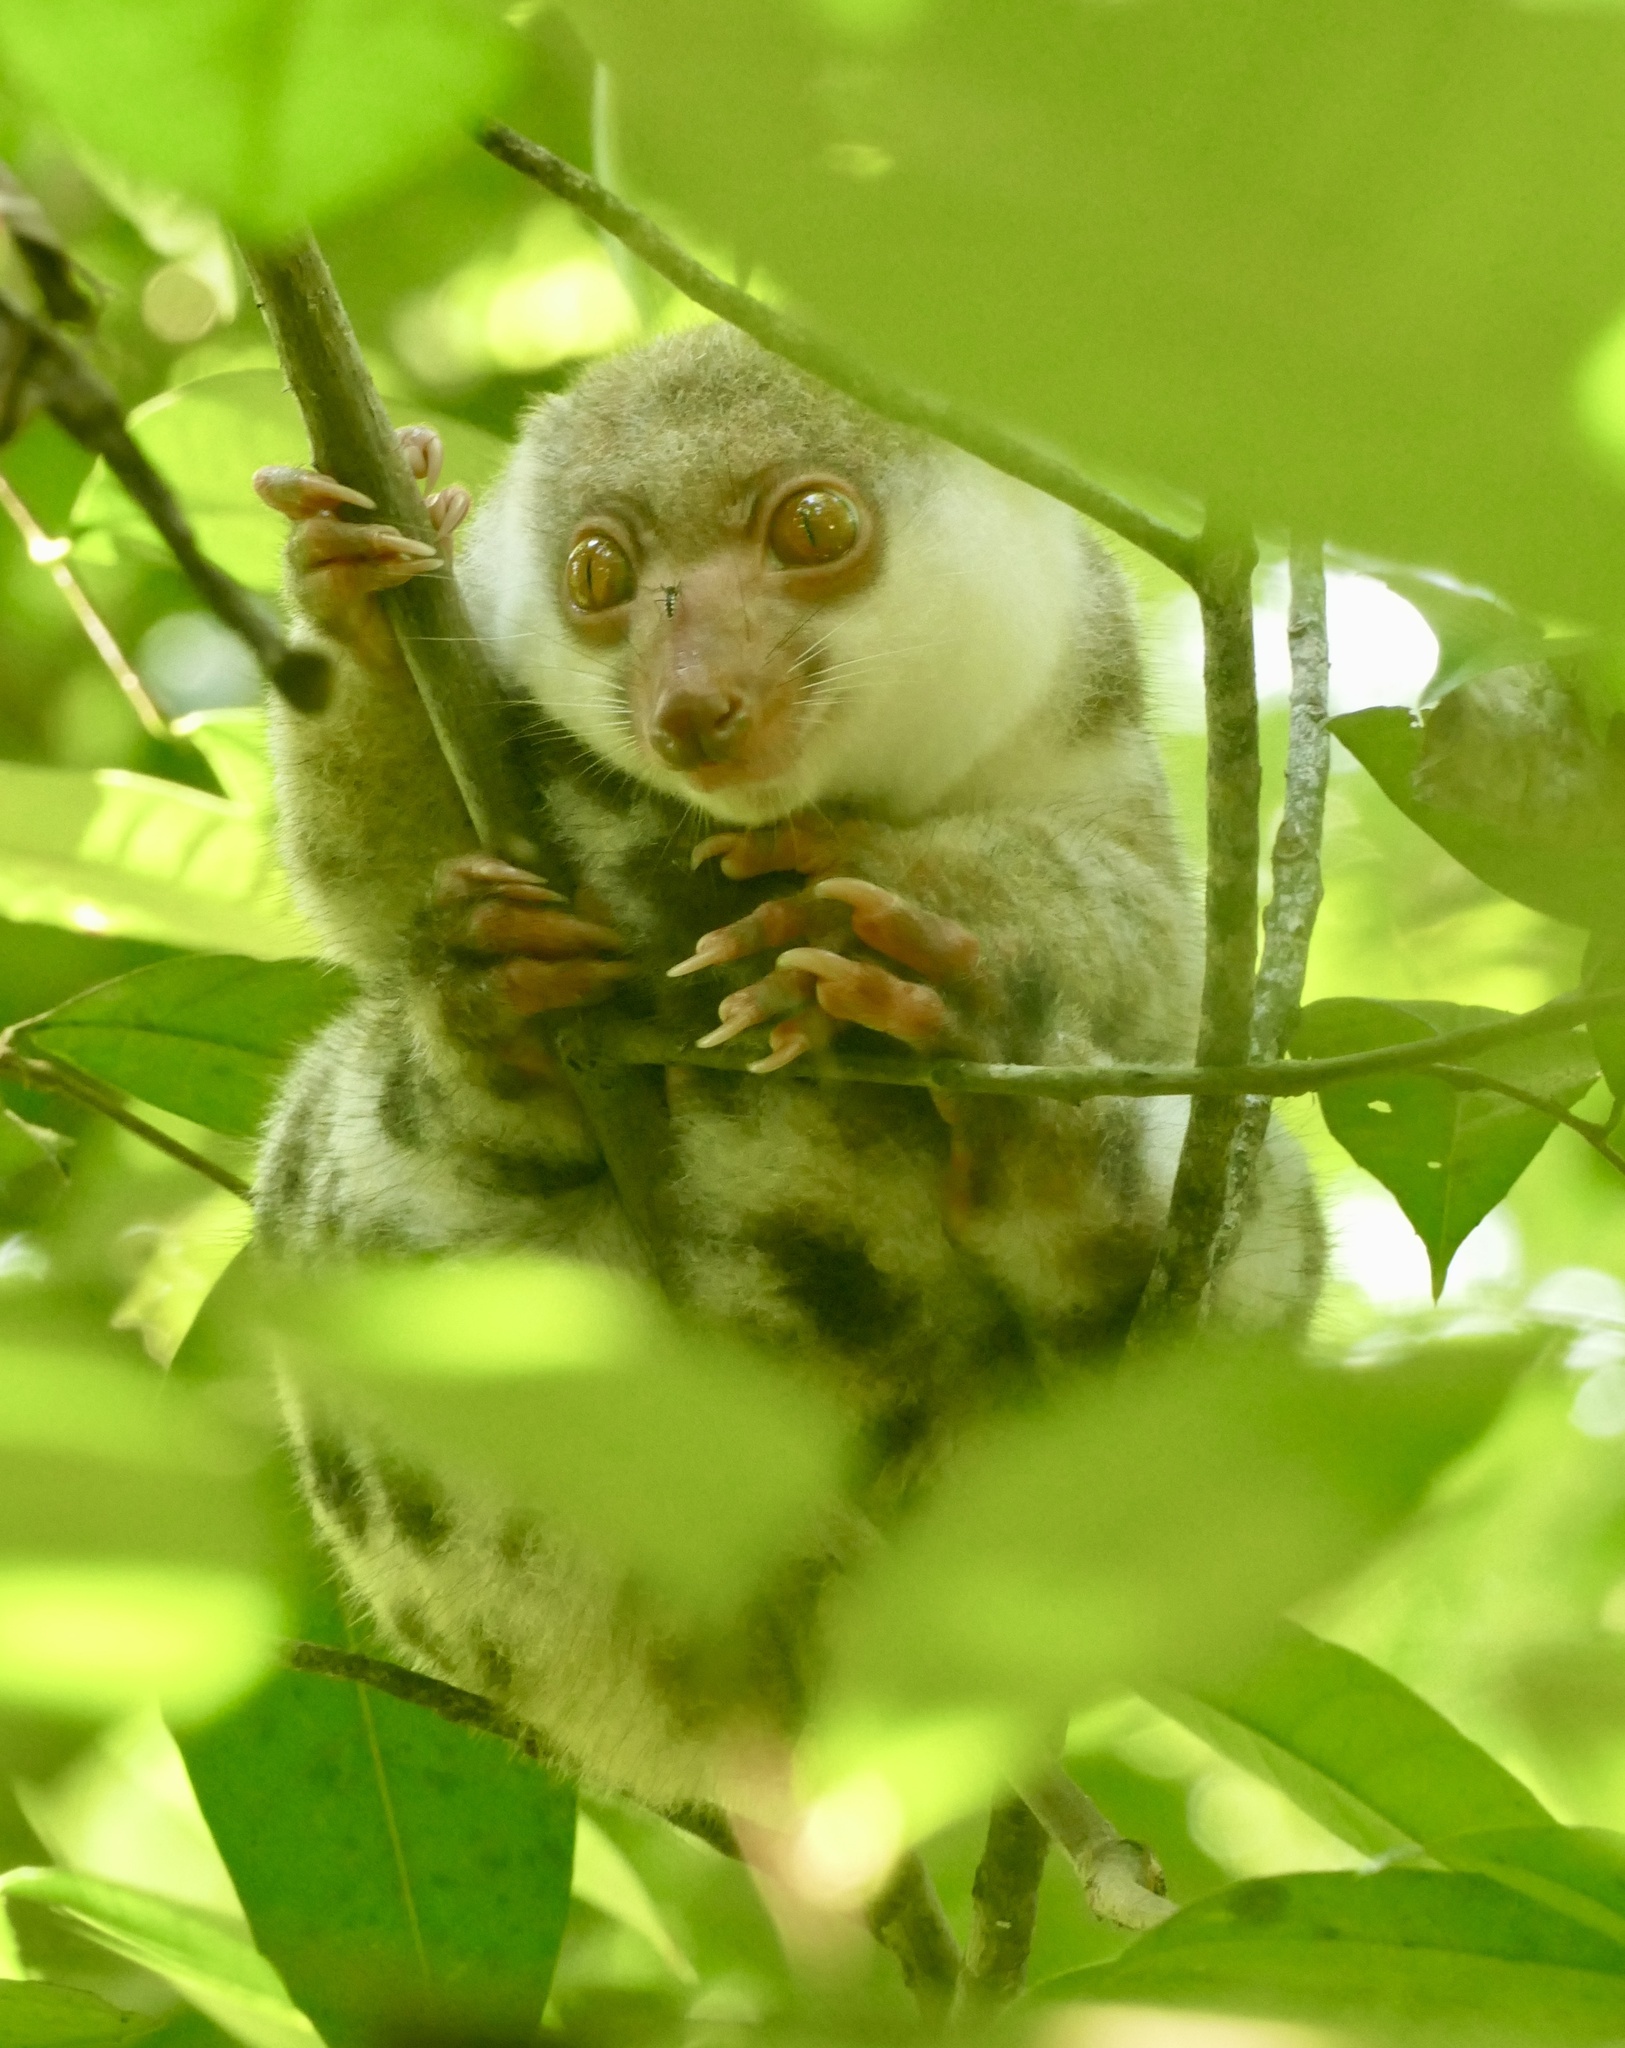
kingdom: Animalia
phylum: Chordata
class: Mammalia
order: Diprotodontia
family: Phalangeridae
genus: Spilocuscus
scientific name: Spilocuscus papuensis
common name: Waigeou cuscus
